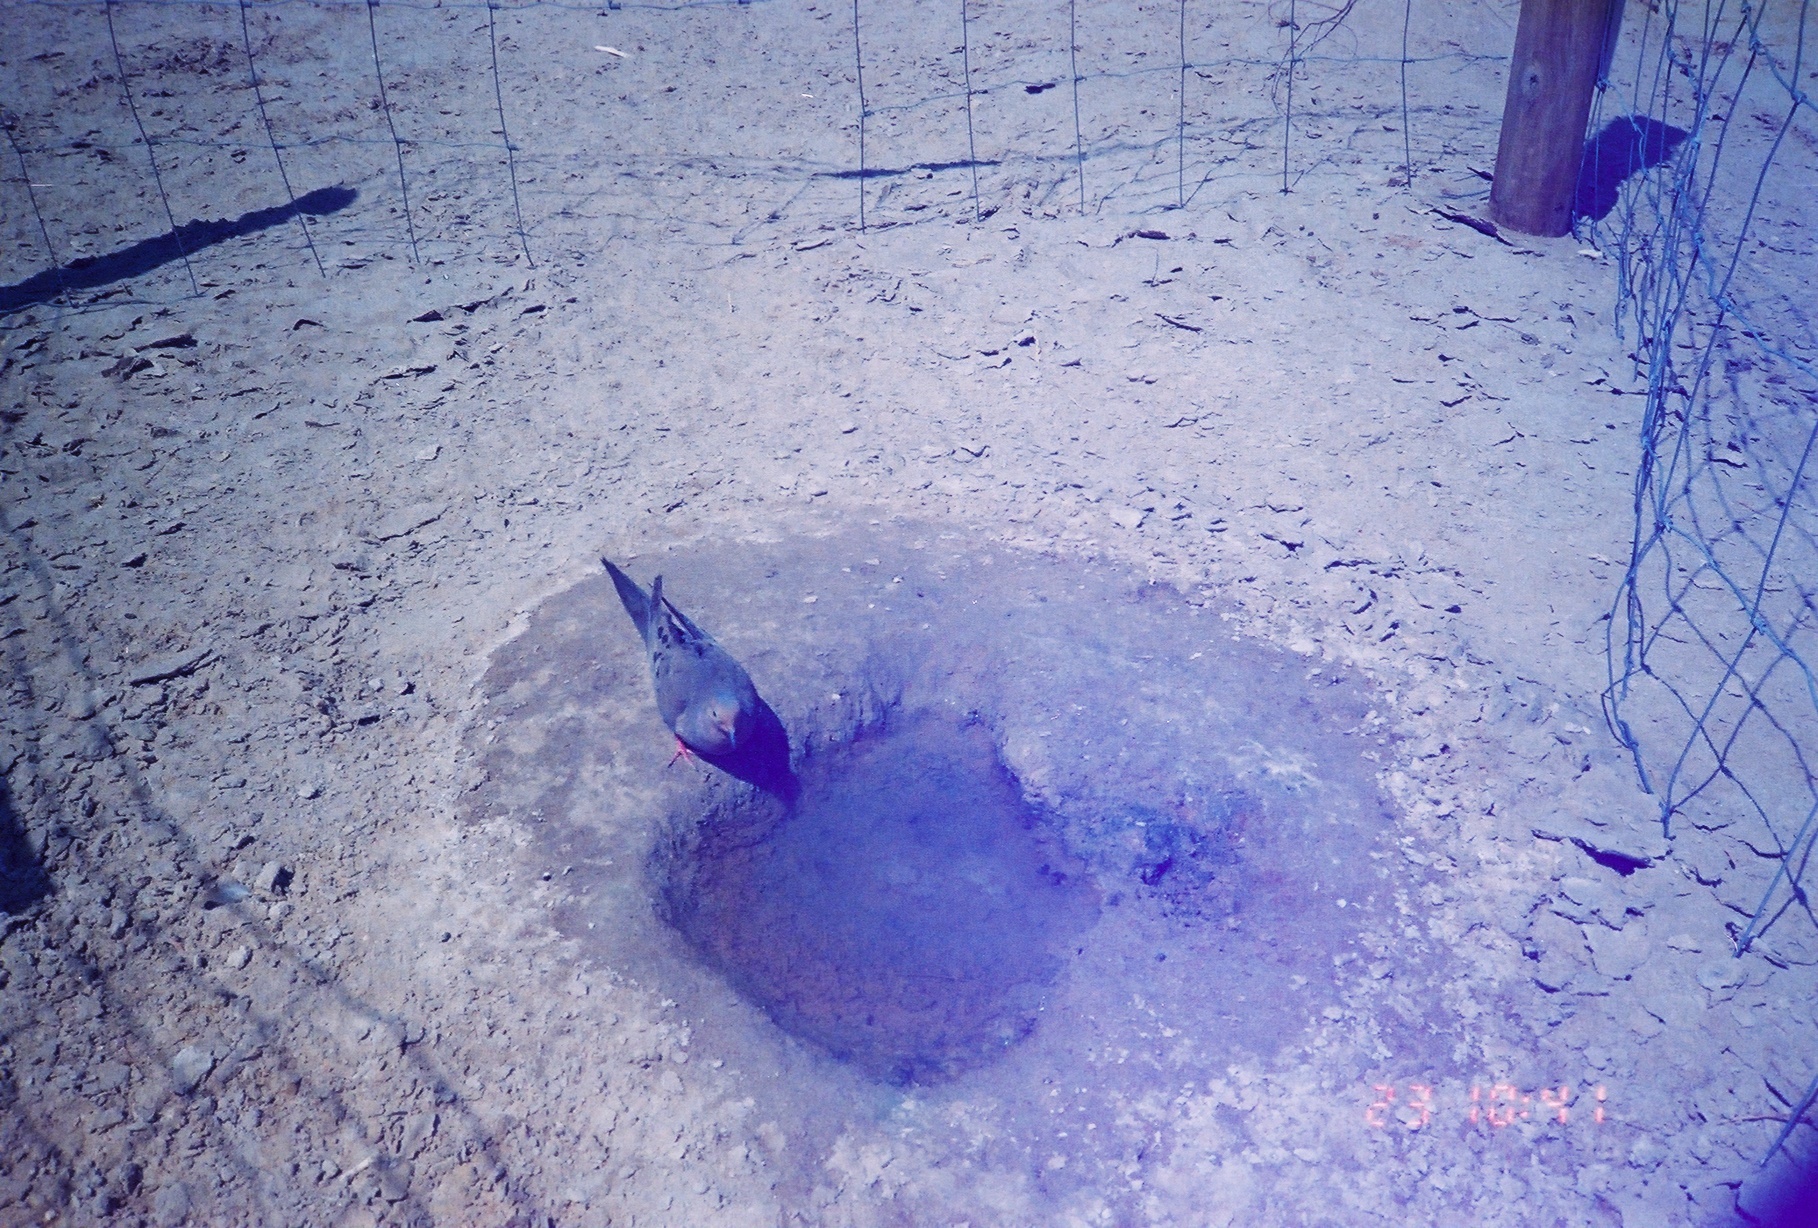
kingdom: Animalia
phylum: Chordata
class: Aves
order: Columbiformes
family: Columbidae
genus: Zenaida
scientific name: Zenaida macroura
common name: Mourning dove
